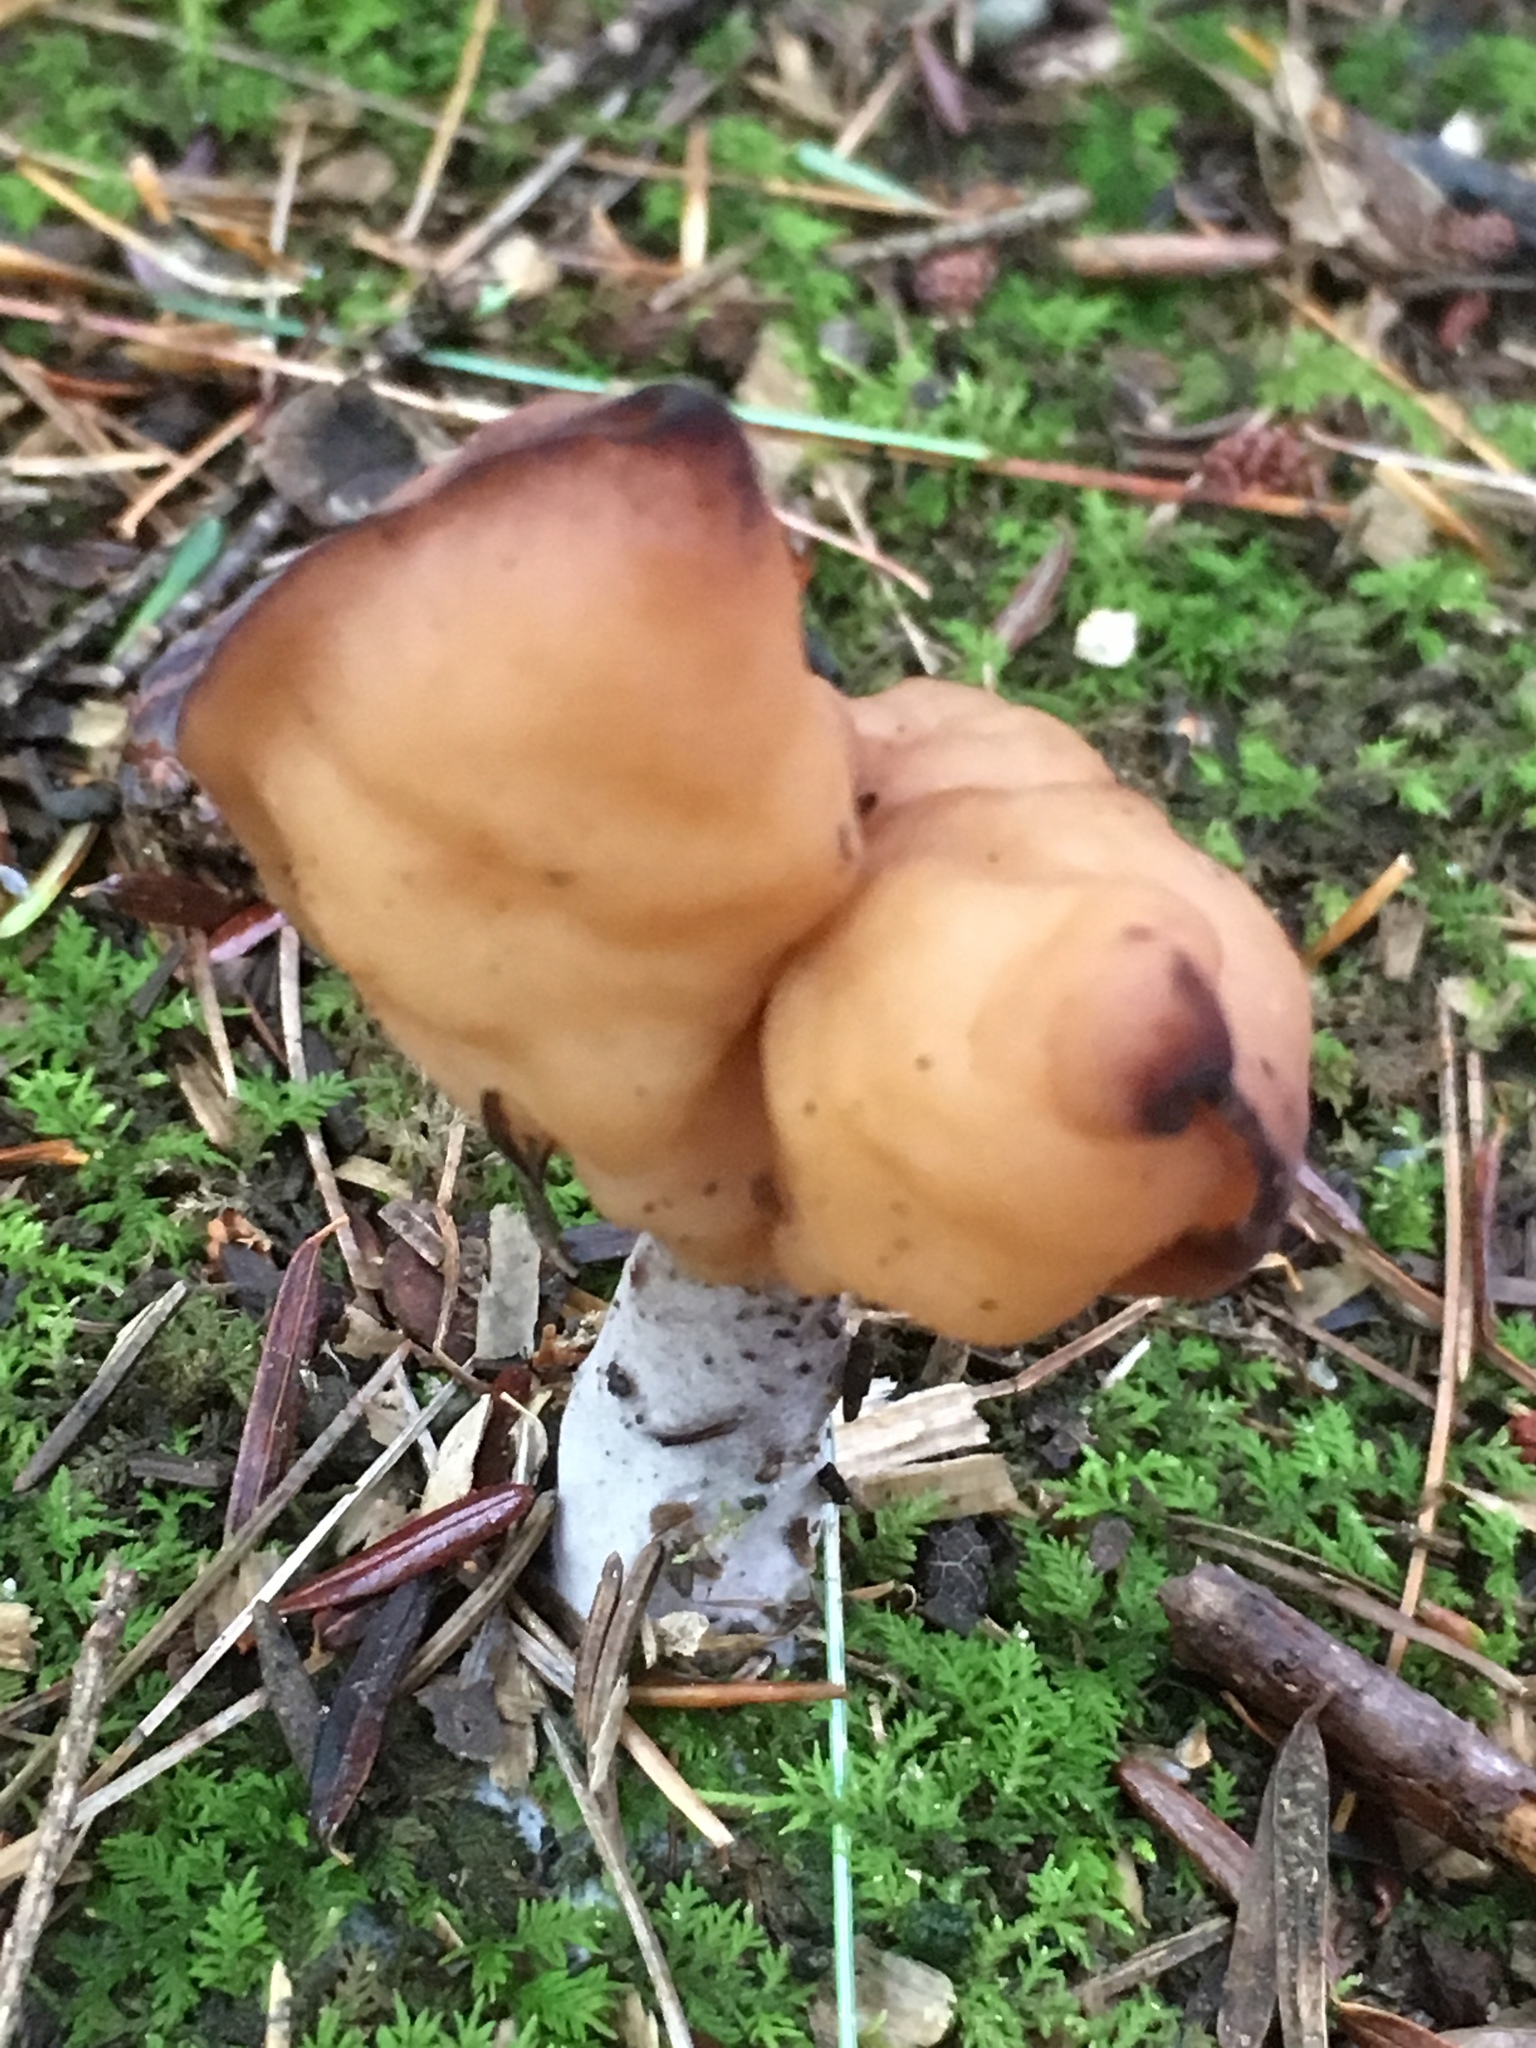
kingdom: Fungi
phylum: Ascomycota
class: Pezizomycetes
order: Pezizales
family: Discinaceae
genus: Gyromitra
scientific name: Gyromitra infula
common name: Pouched false morel
